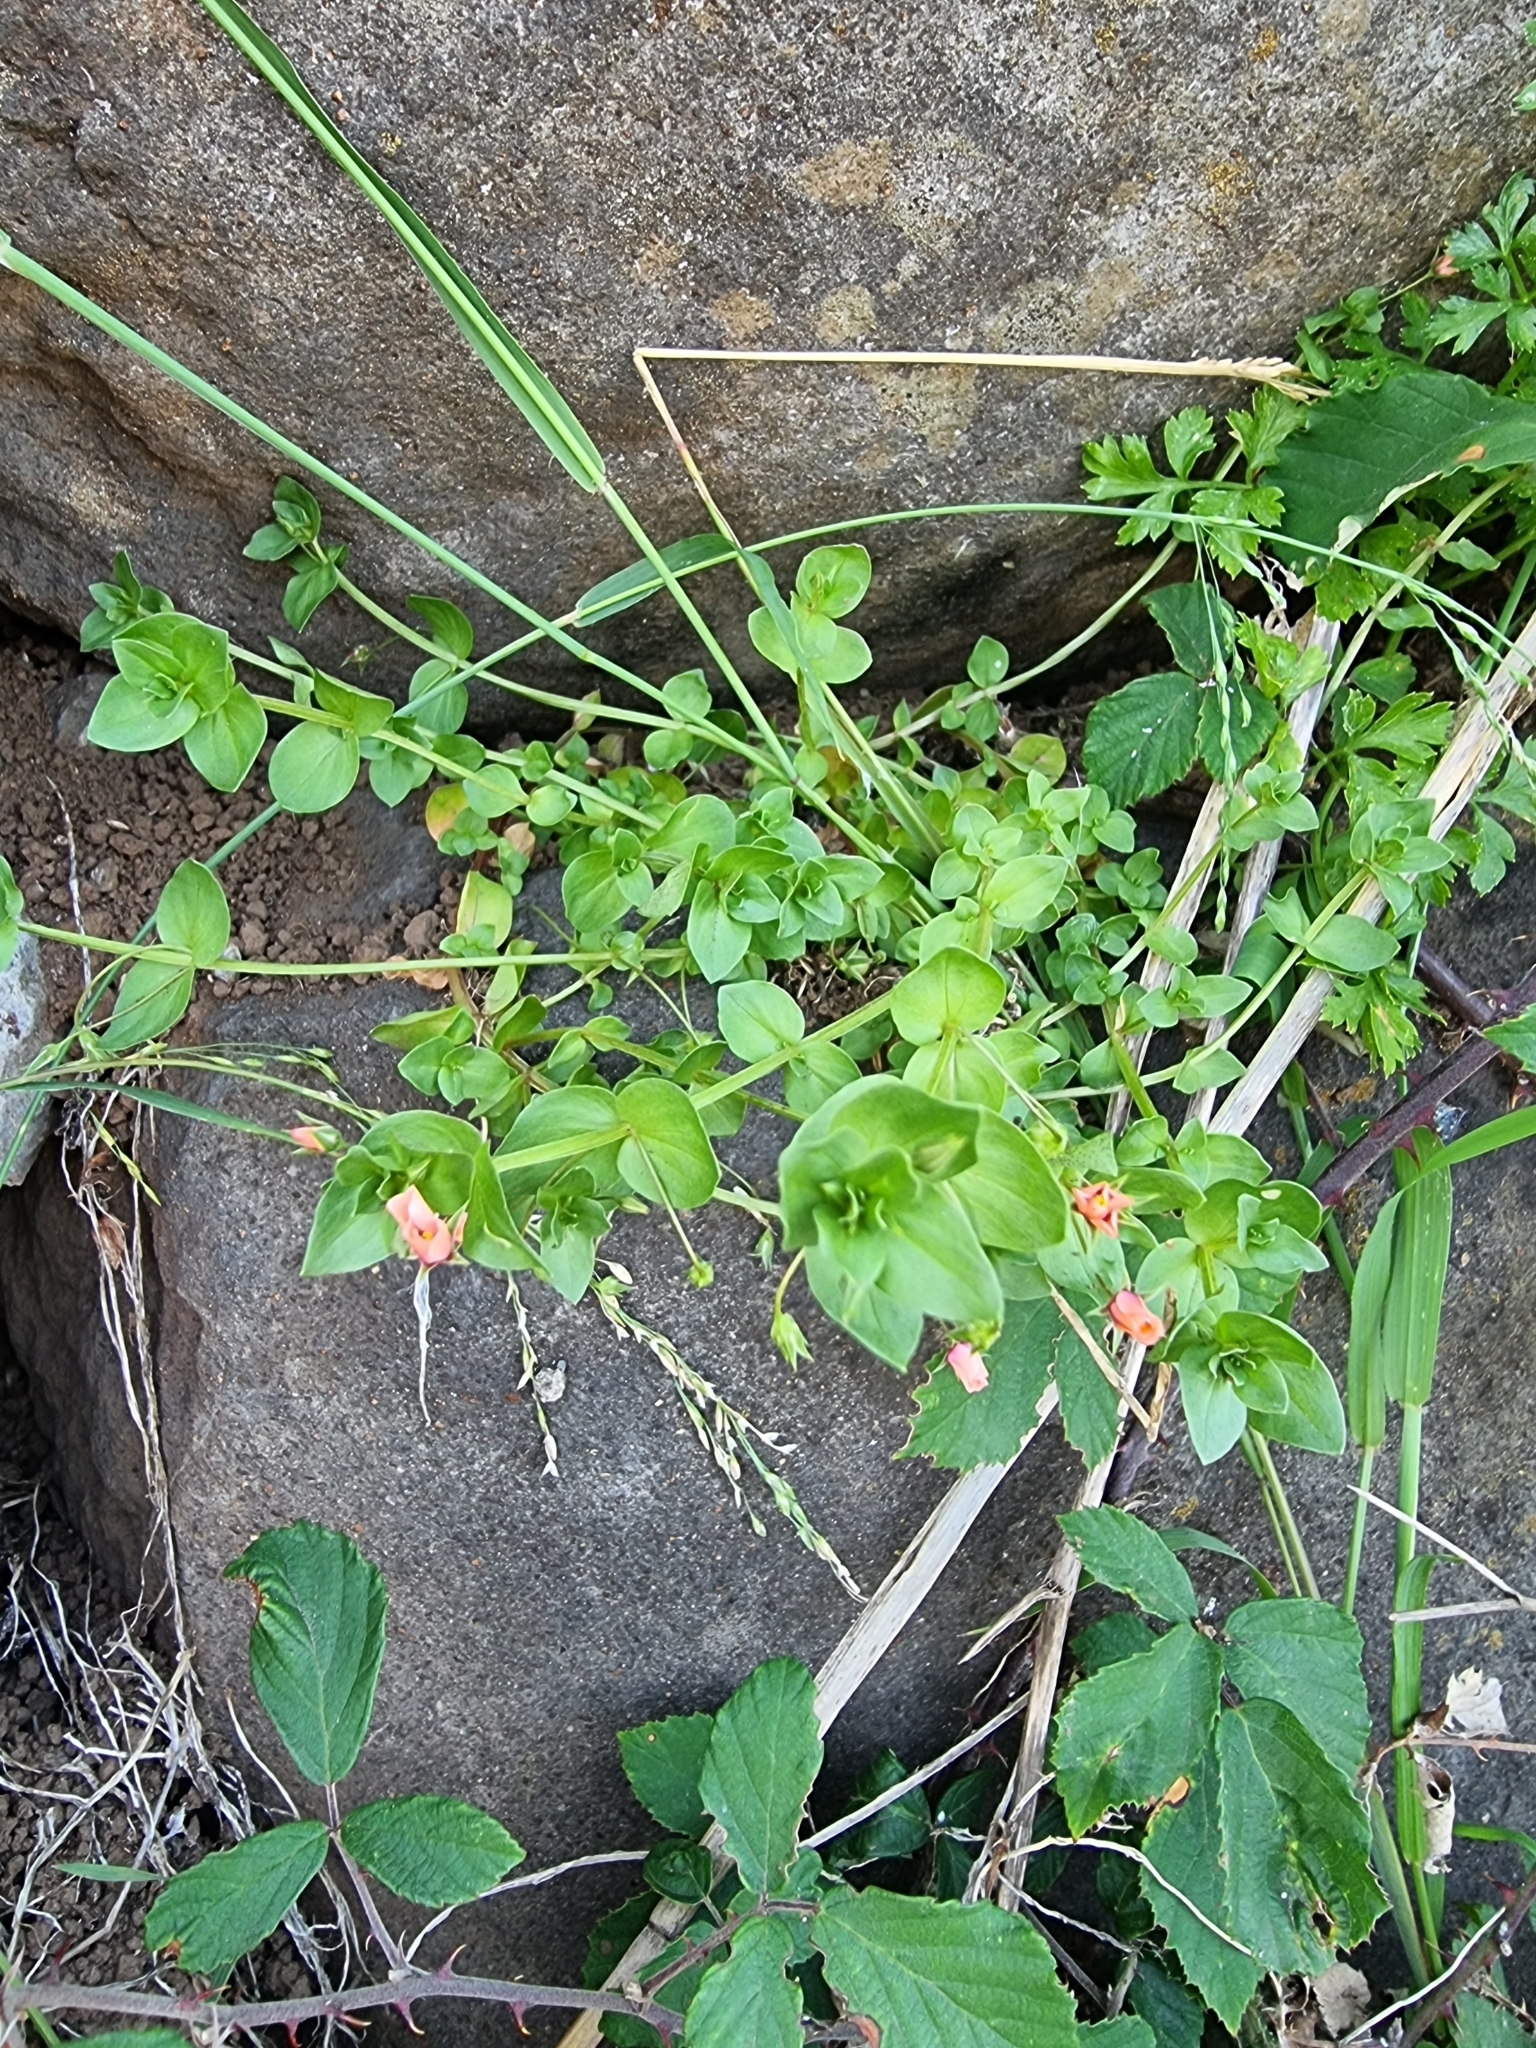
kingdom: Plantae
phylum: Tracheophyta
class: Magnoliopsida
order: Ericales
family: Primulaceae
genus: Lysimachia
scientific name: Lysimachia arvensis
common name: Scarlet pimpernel
